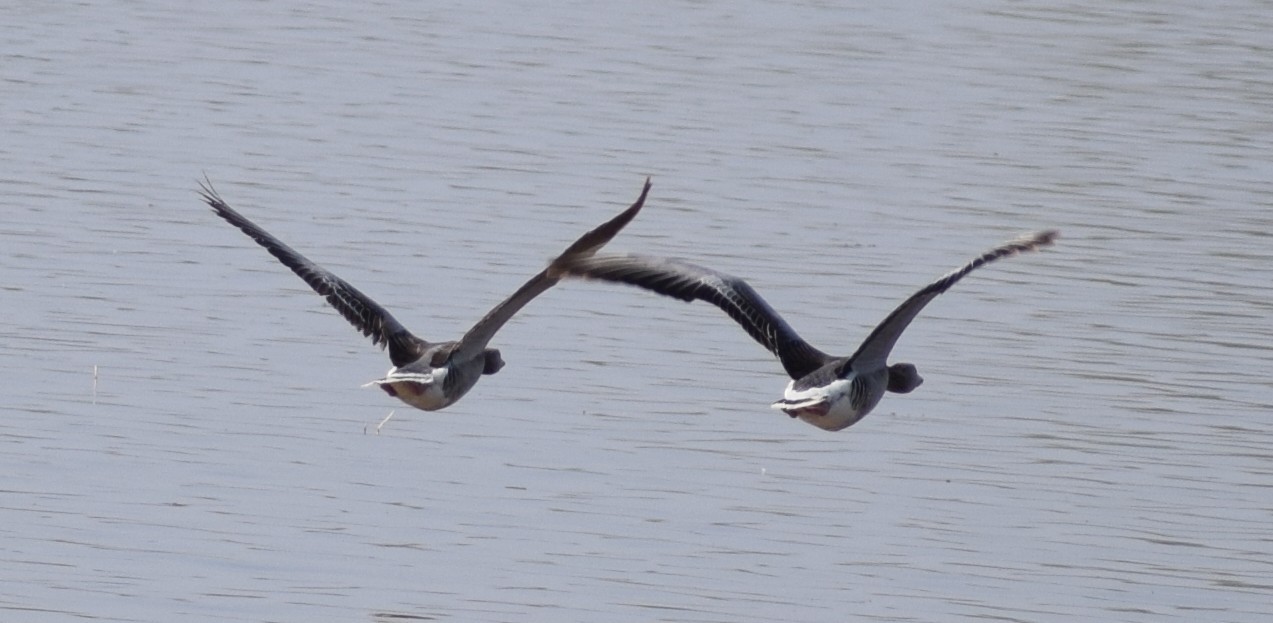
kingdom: Animalia
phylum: Chordata
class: Aves
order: Anseriformes
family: Anatidae
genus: Anser
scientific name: Anser anser
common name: Greylag goose
